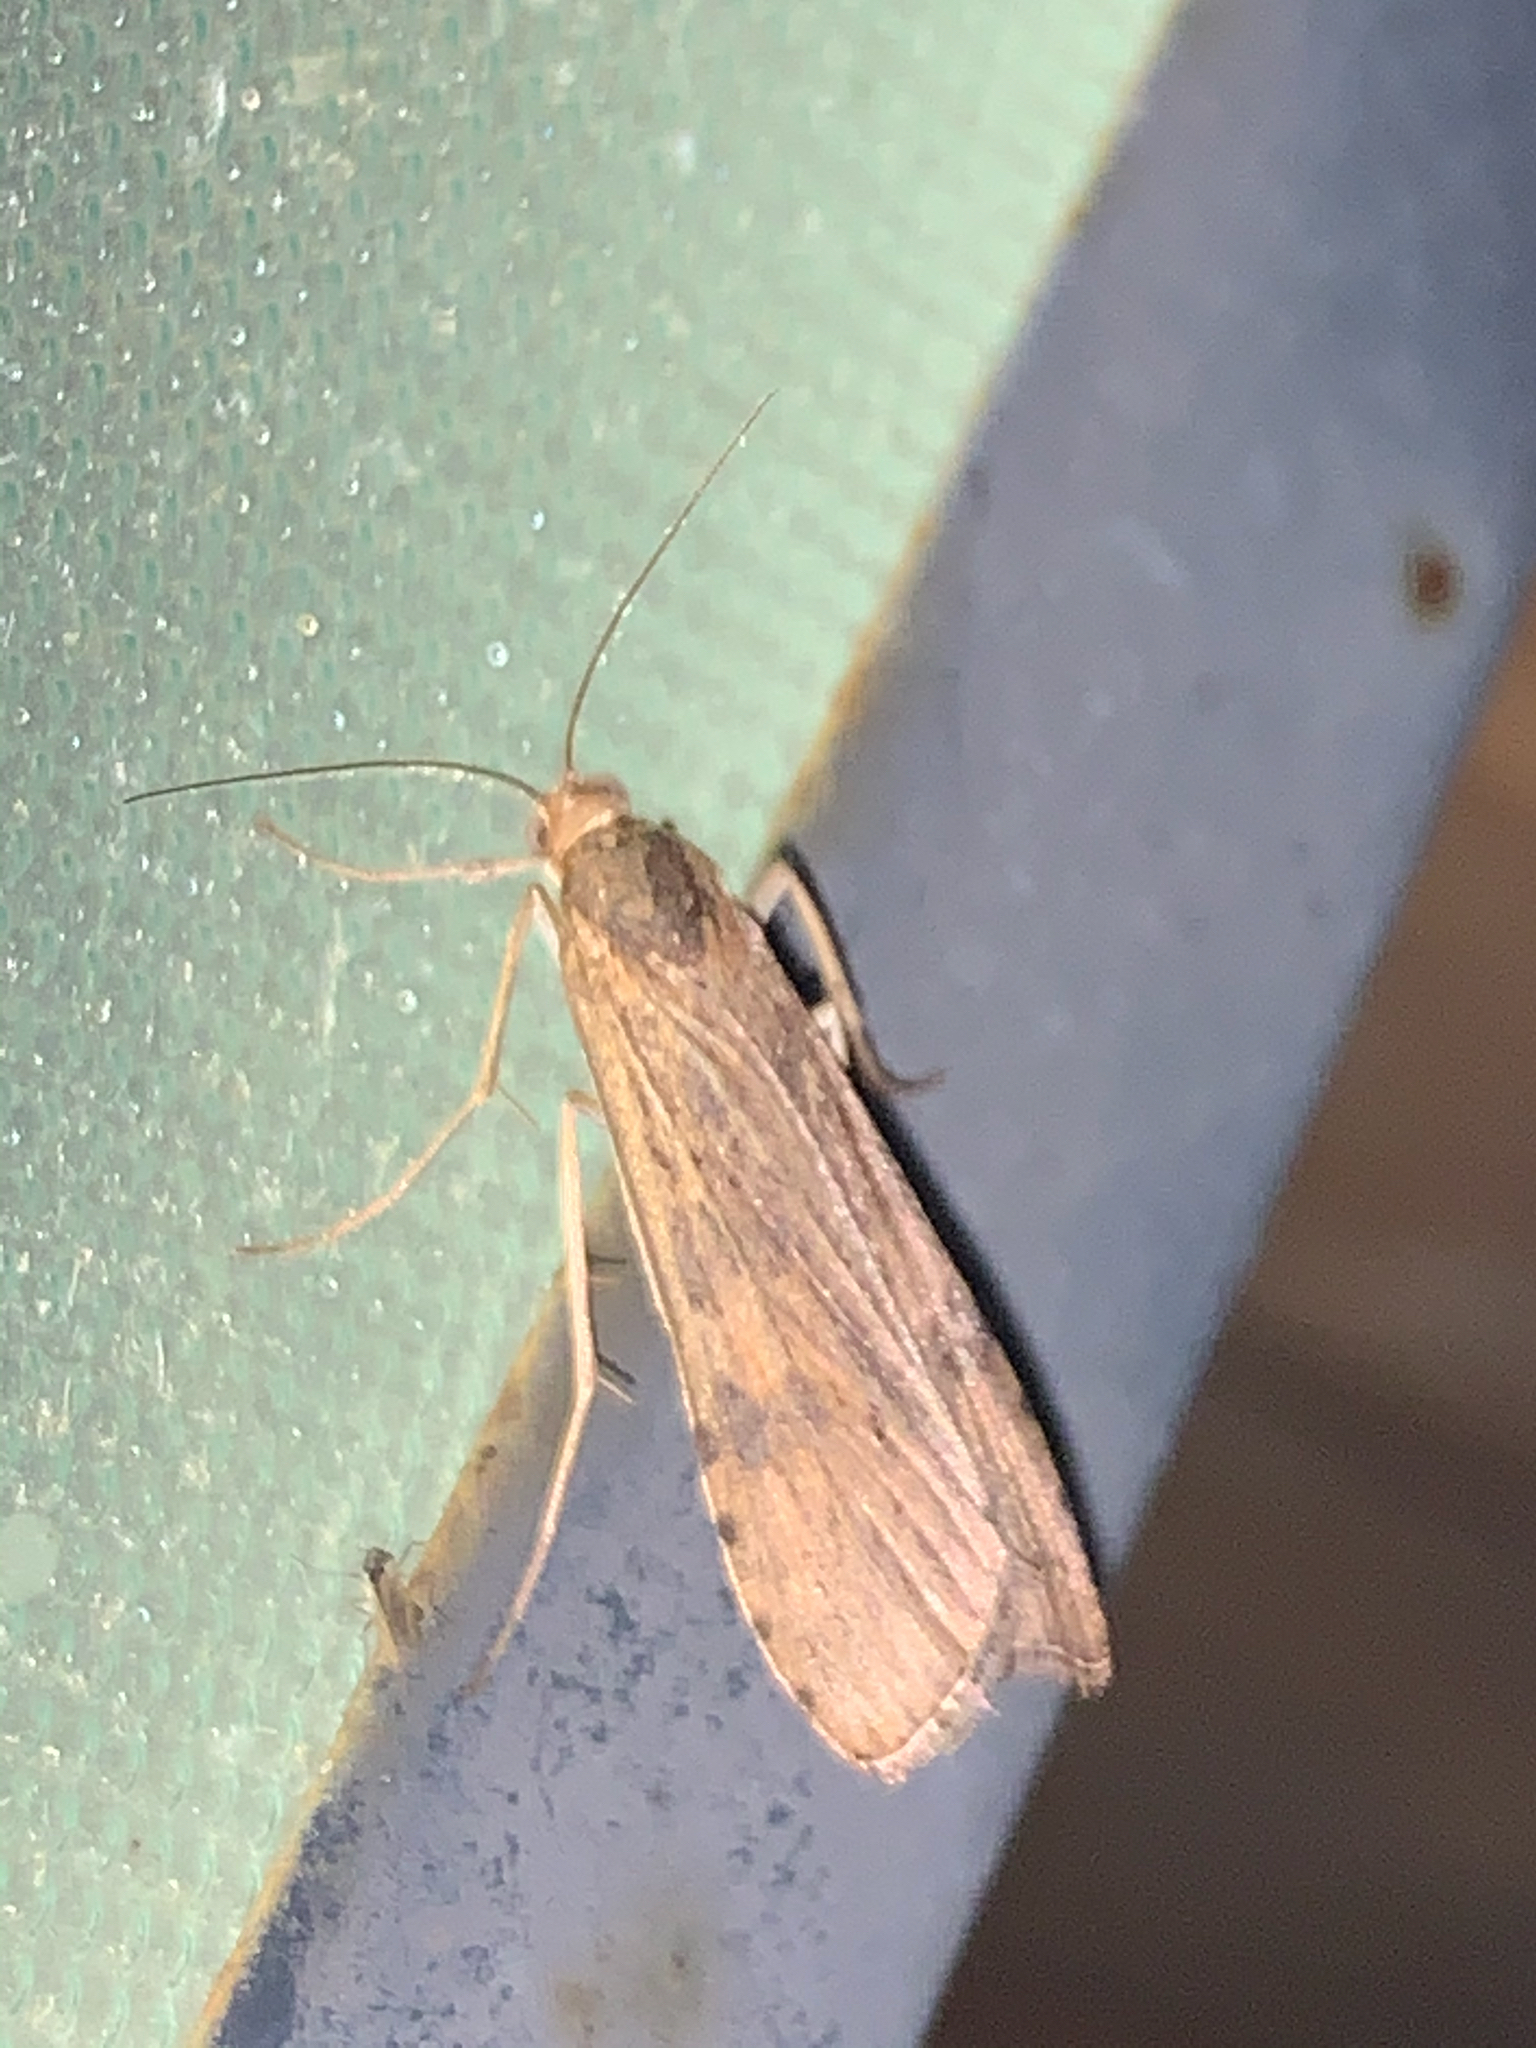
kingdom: Animalia
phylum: Arthropoda
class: Insecta
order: Lepidoptera
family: Crambidae
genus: Nomophila
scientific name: Nomophila nearctica
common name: American rush veneer
